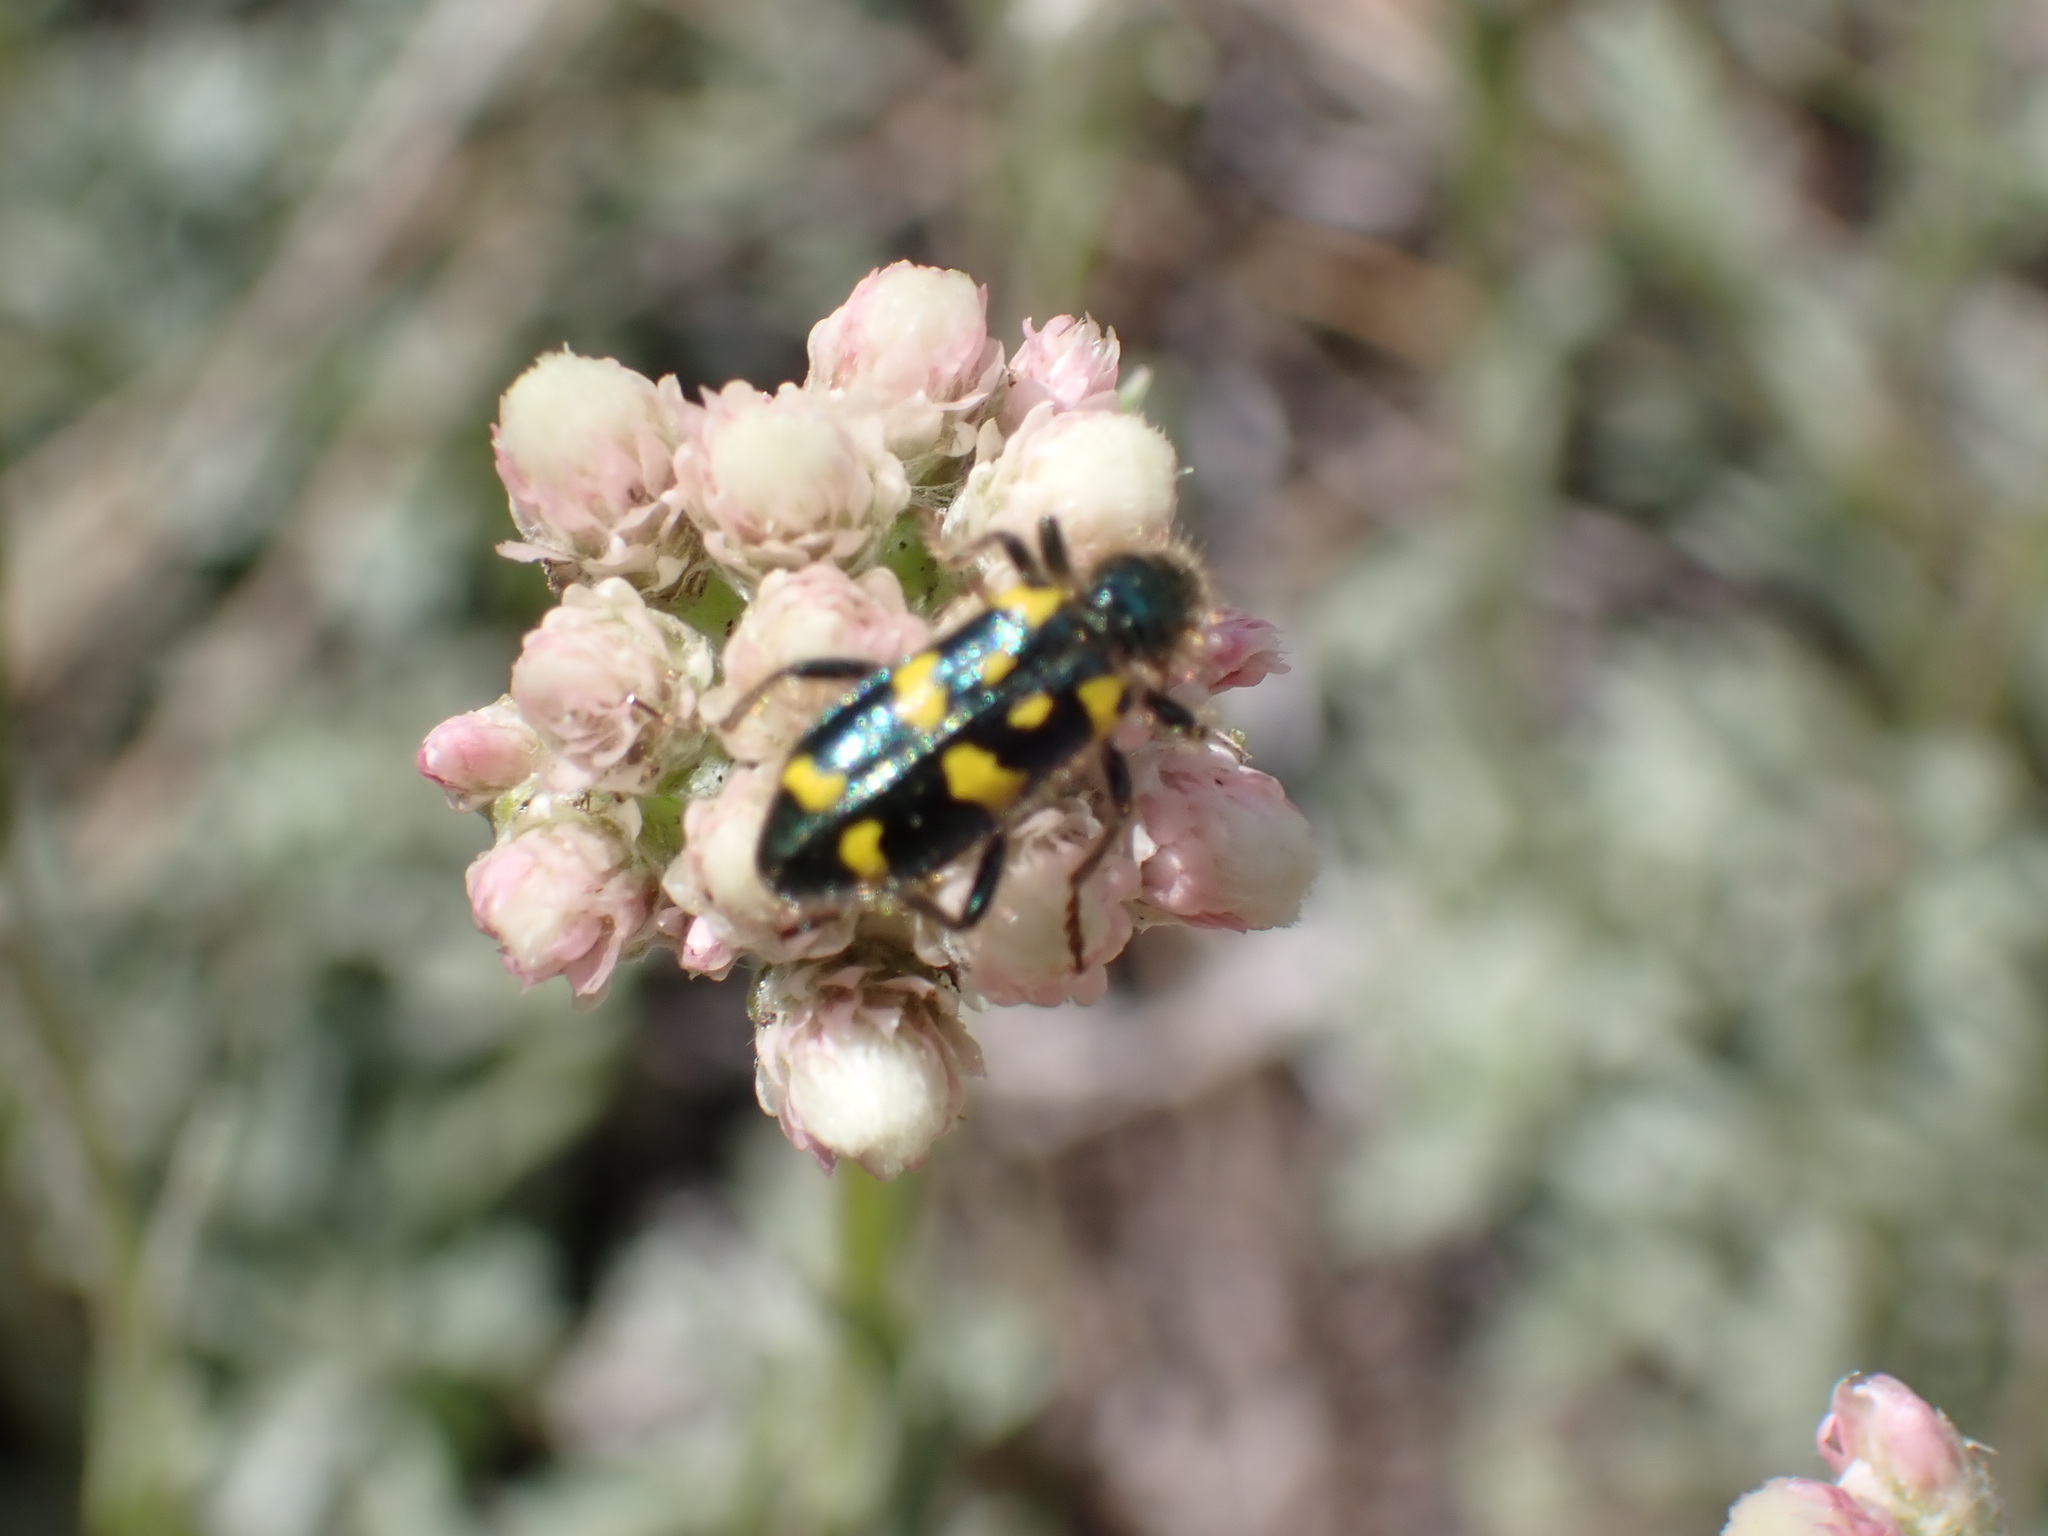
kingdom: Animalia
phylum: Arthropoda
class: Insecta
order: Coleoptera
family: Cleridae
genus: Trichodes
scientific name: Trichodes ornatus
